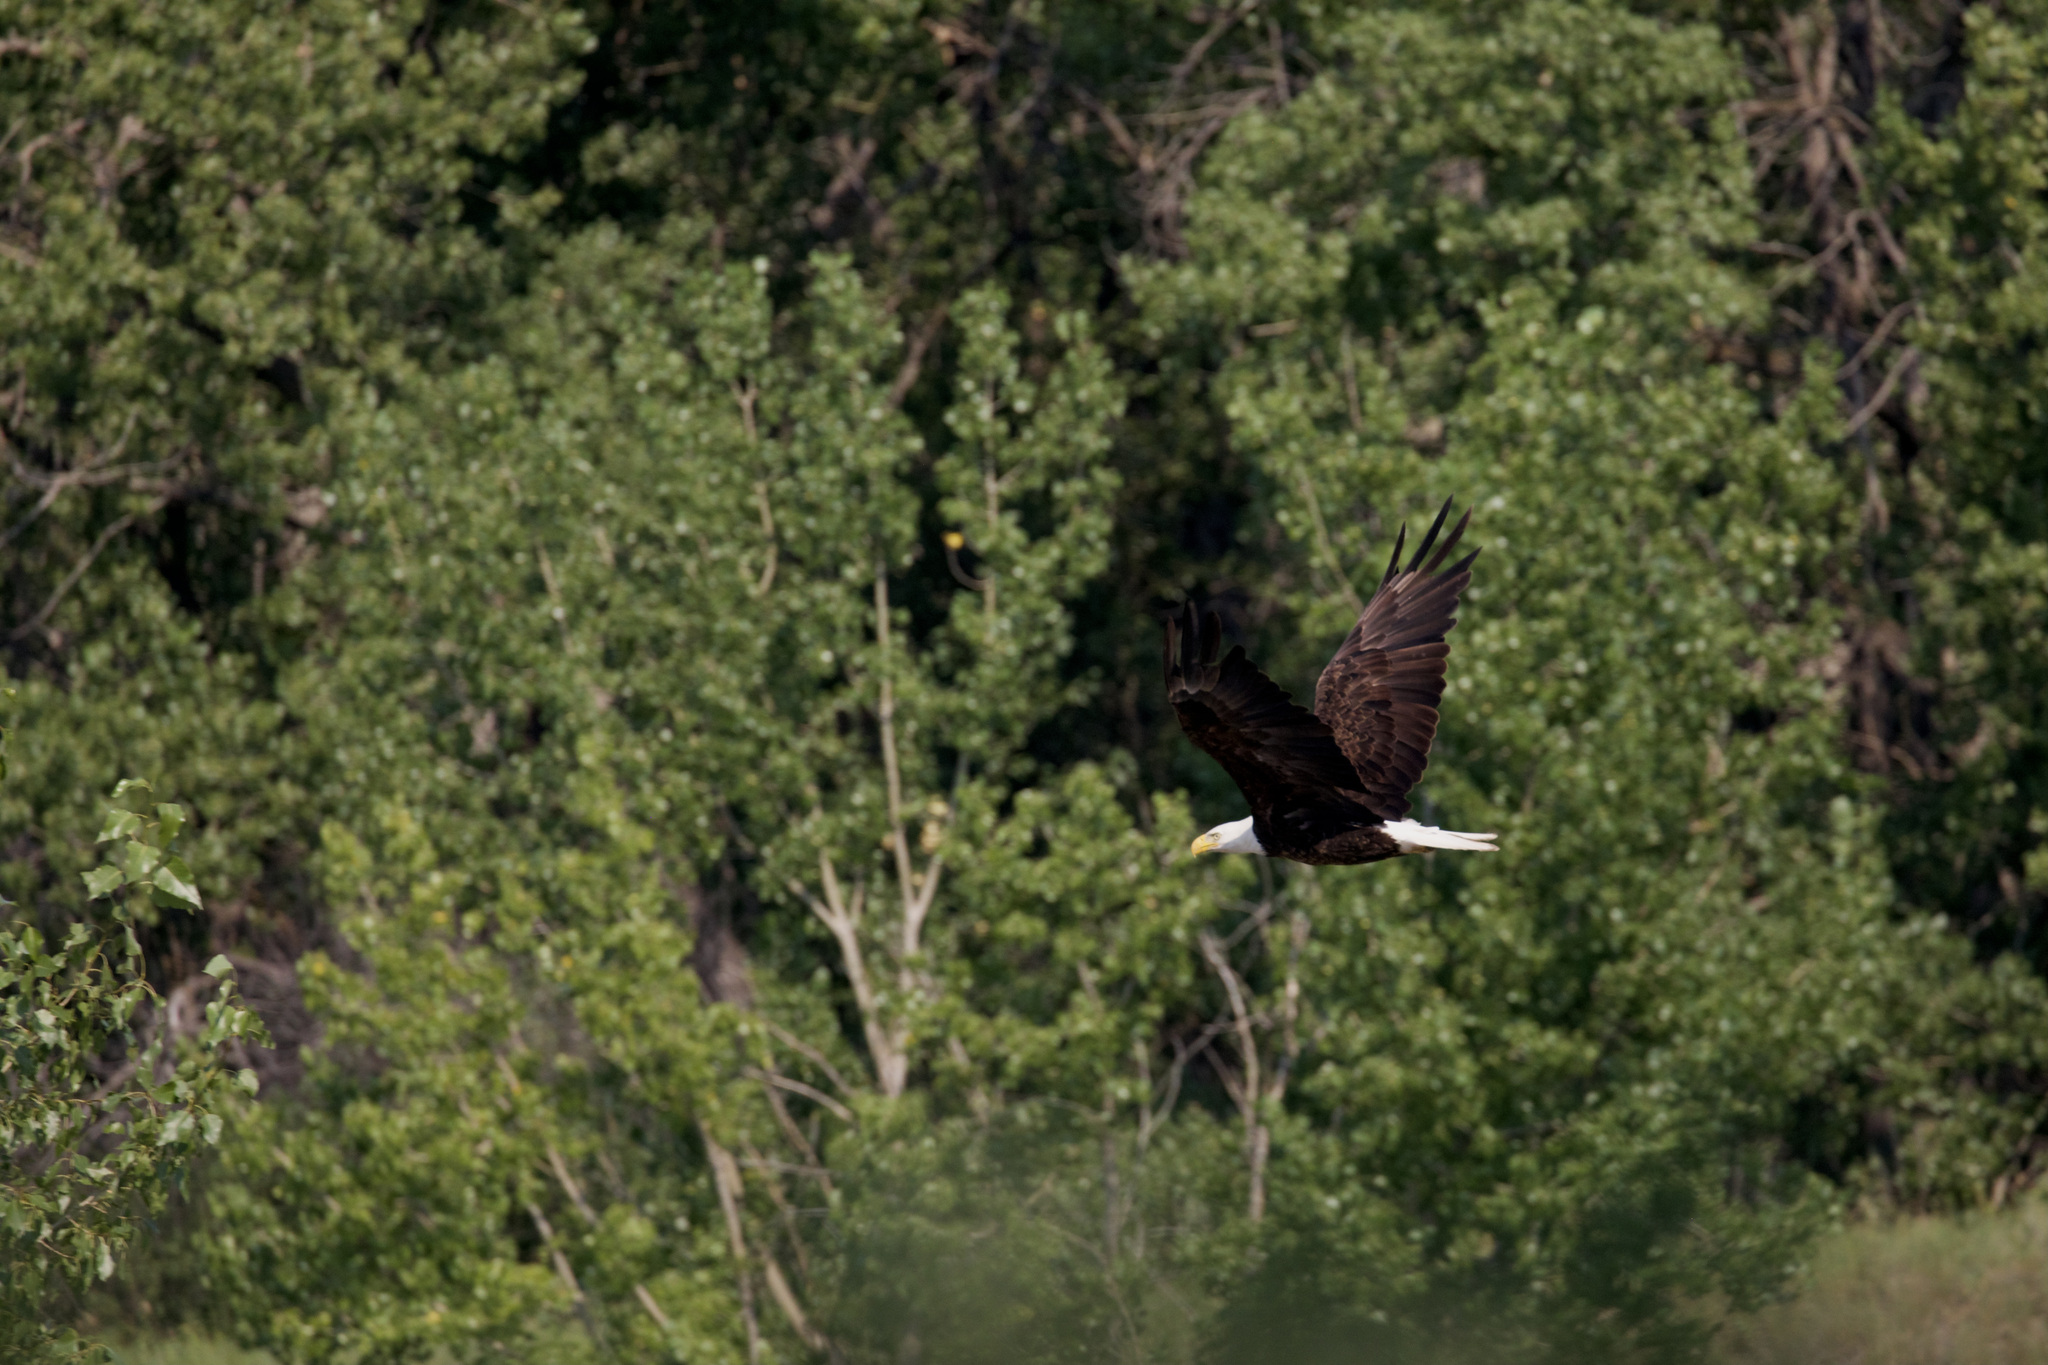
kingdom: Animalia
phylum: Chordata
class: Aves
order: Accipitriformes
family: Accipitridae
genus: Haliaeetus
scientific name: Haliaeetus leucocephalus
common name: Bald eagle
